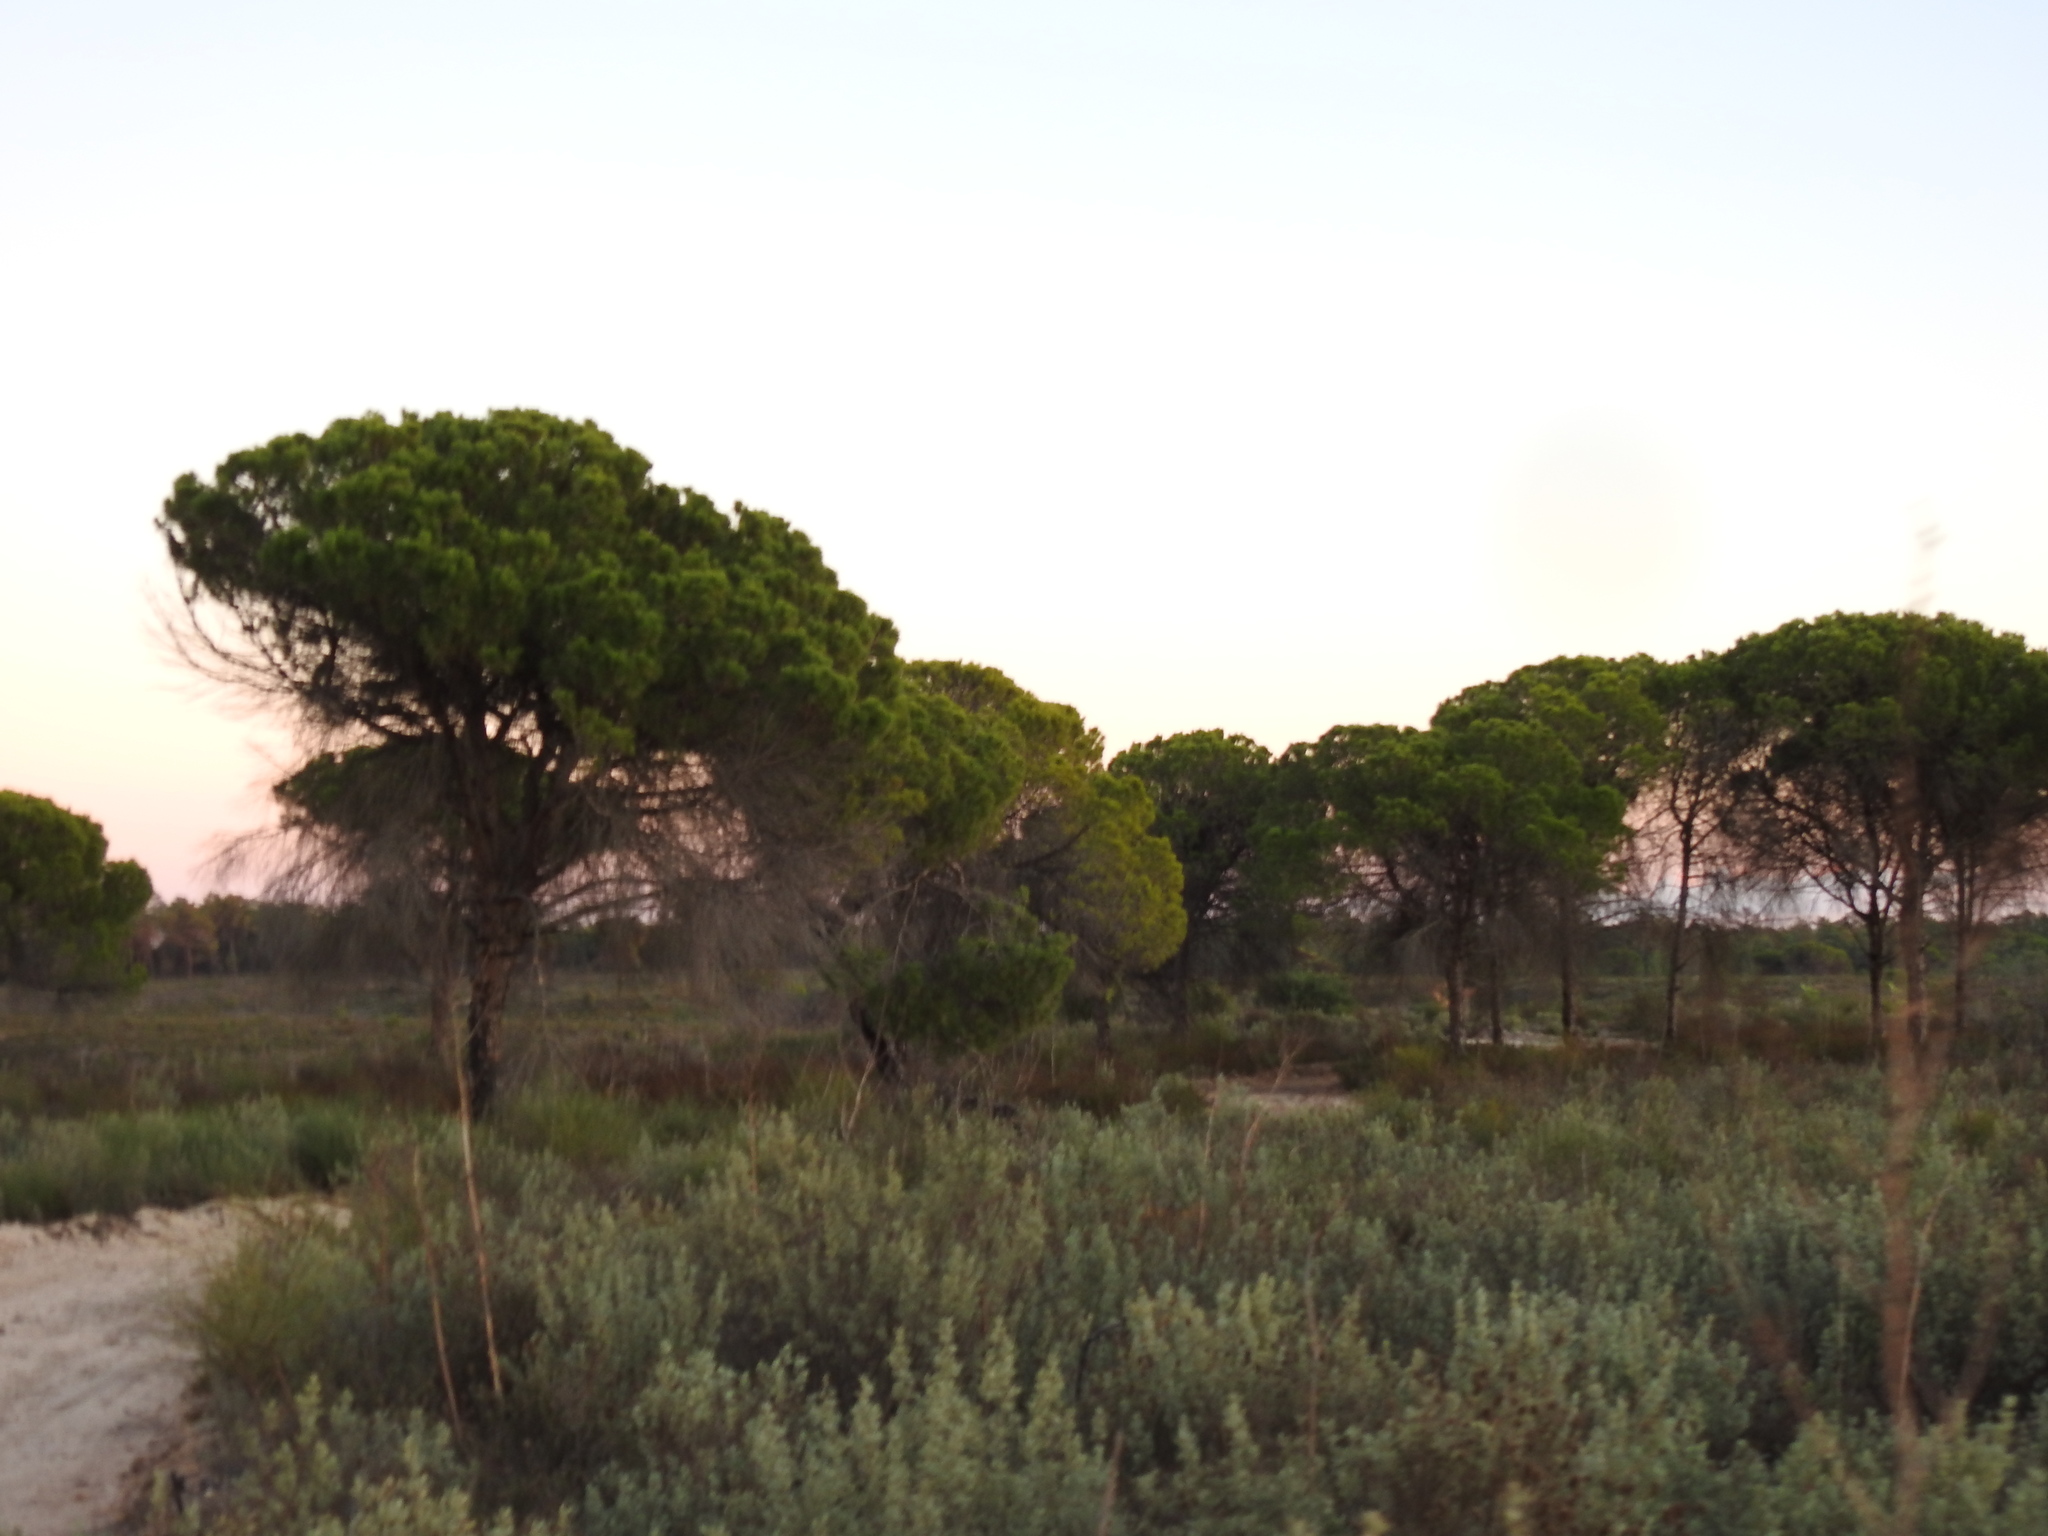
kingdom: Plantae
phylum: Tracheophyta
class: Pinopsida
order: Pinales
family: Pinaceae
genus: Pinus
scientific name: Pinus pinea
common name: Italian stone pine
